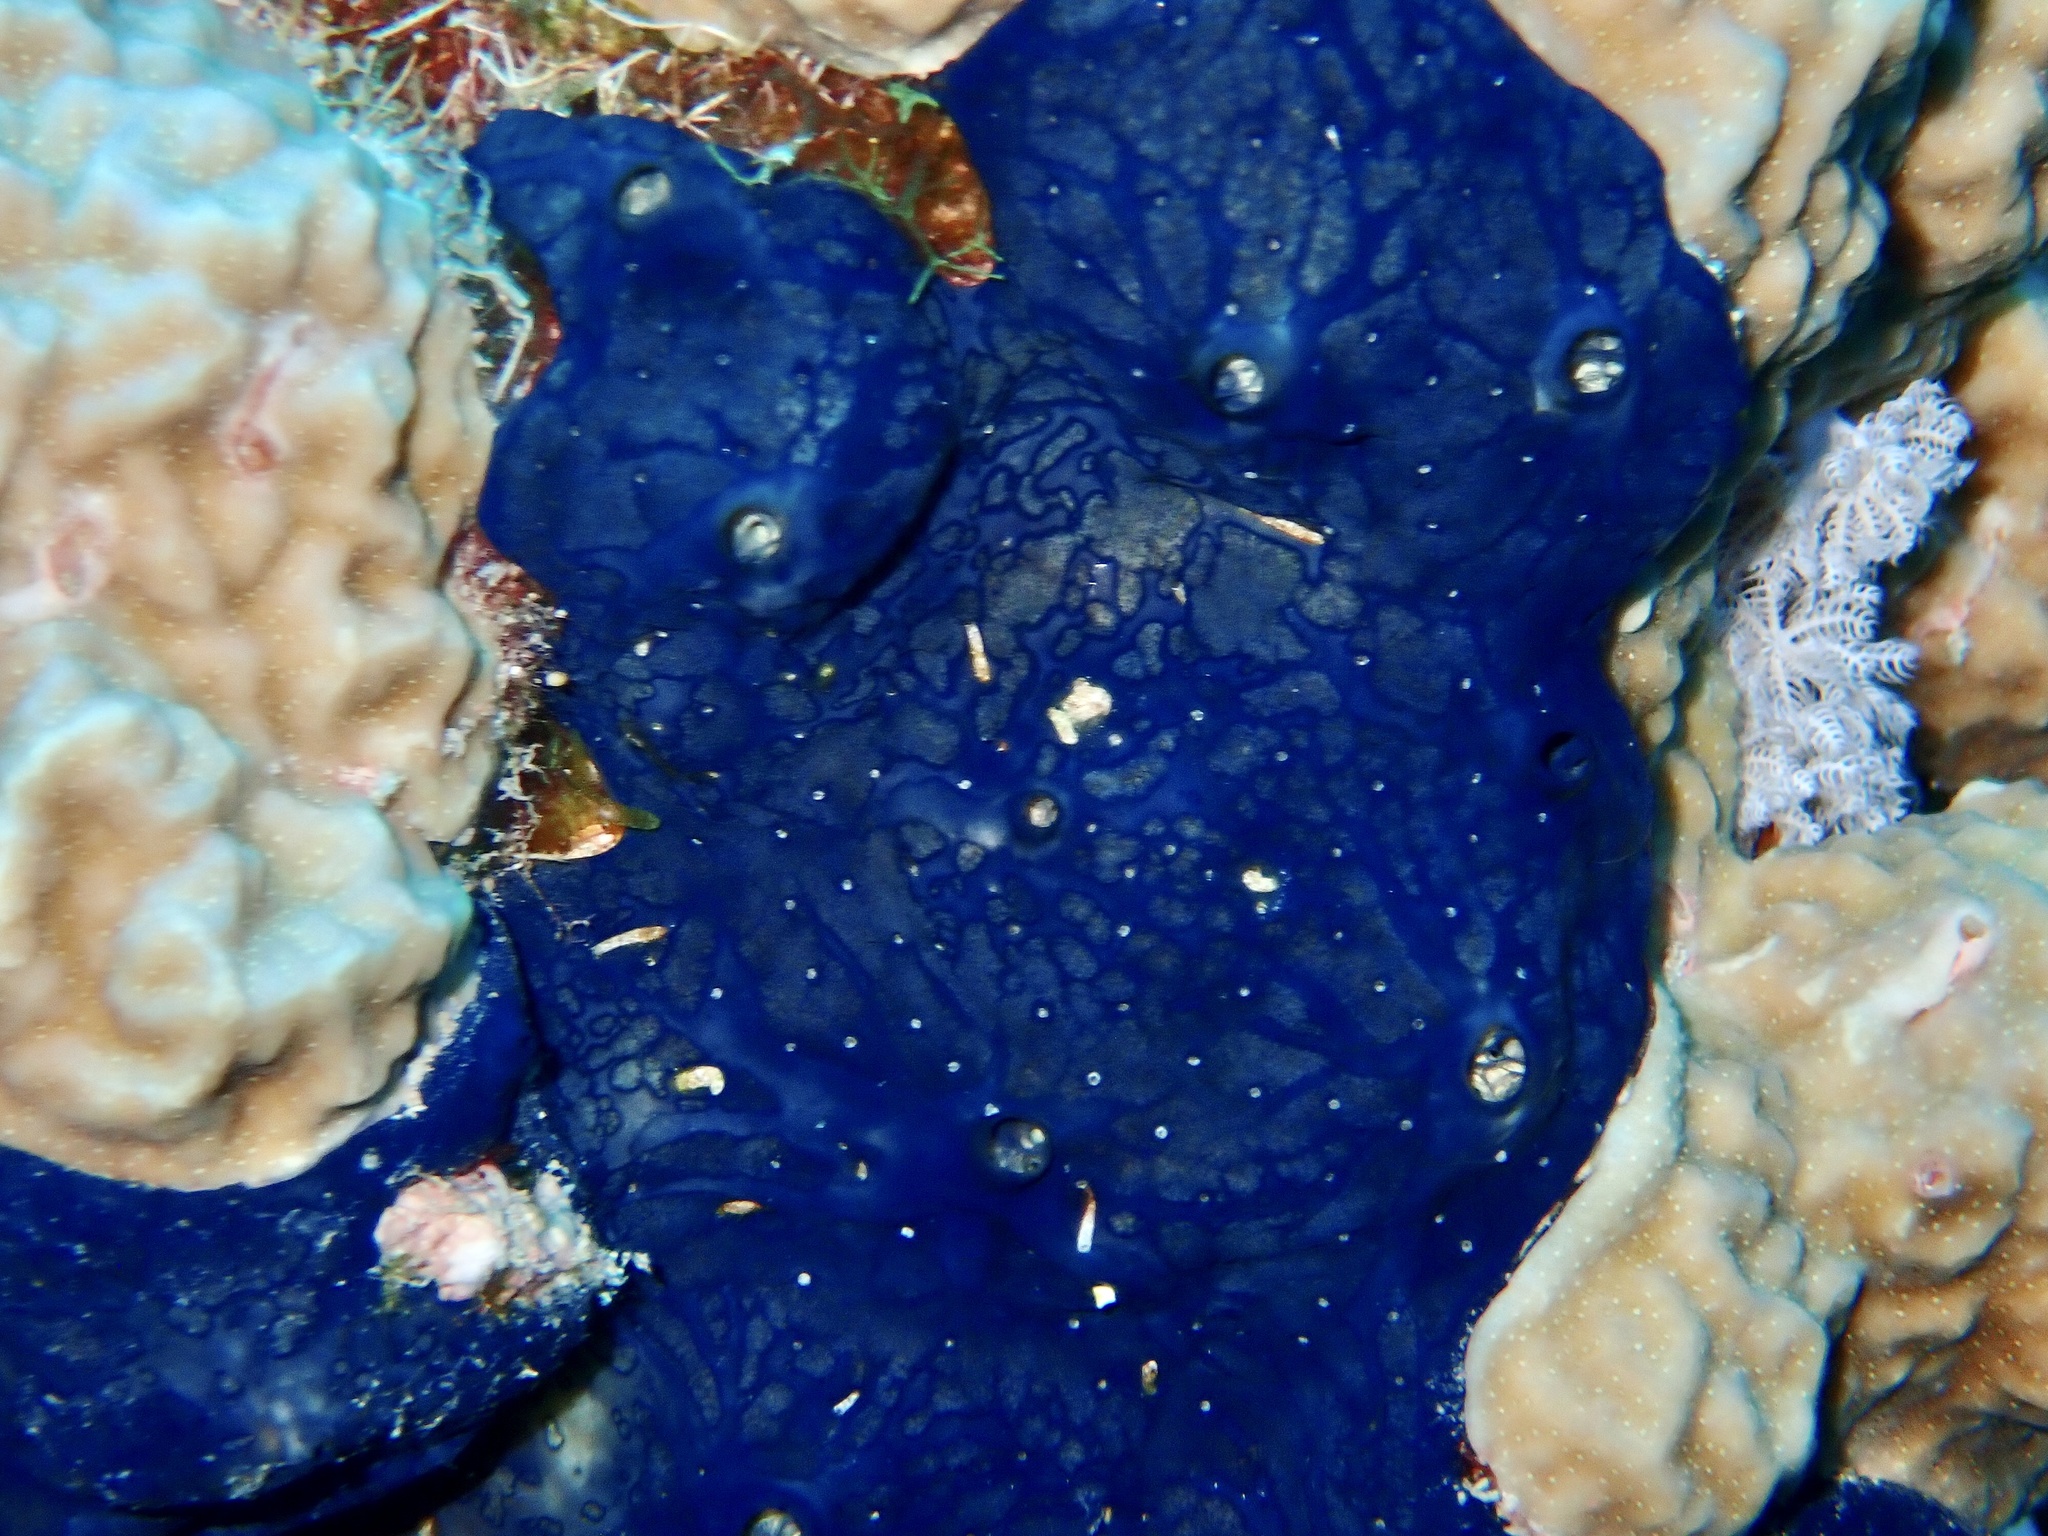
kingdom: Animalia
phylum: Porifera
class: Demospongiae
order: Poecilosclerida
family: Hymedesmiidae
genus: Hemimycale
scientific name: Hemimycale arabica
